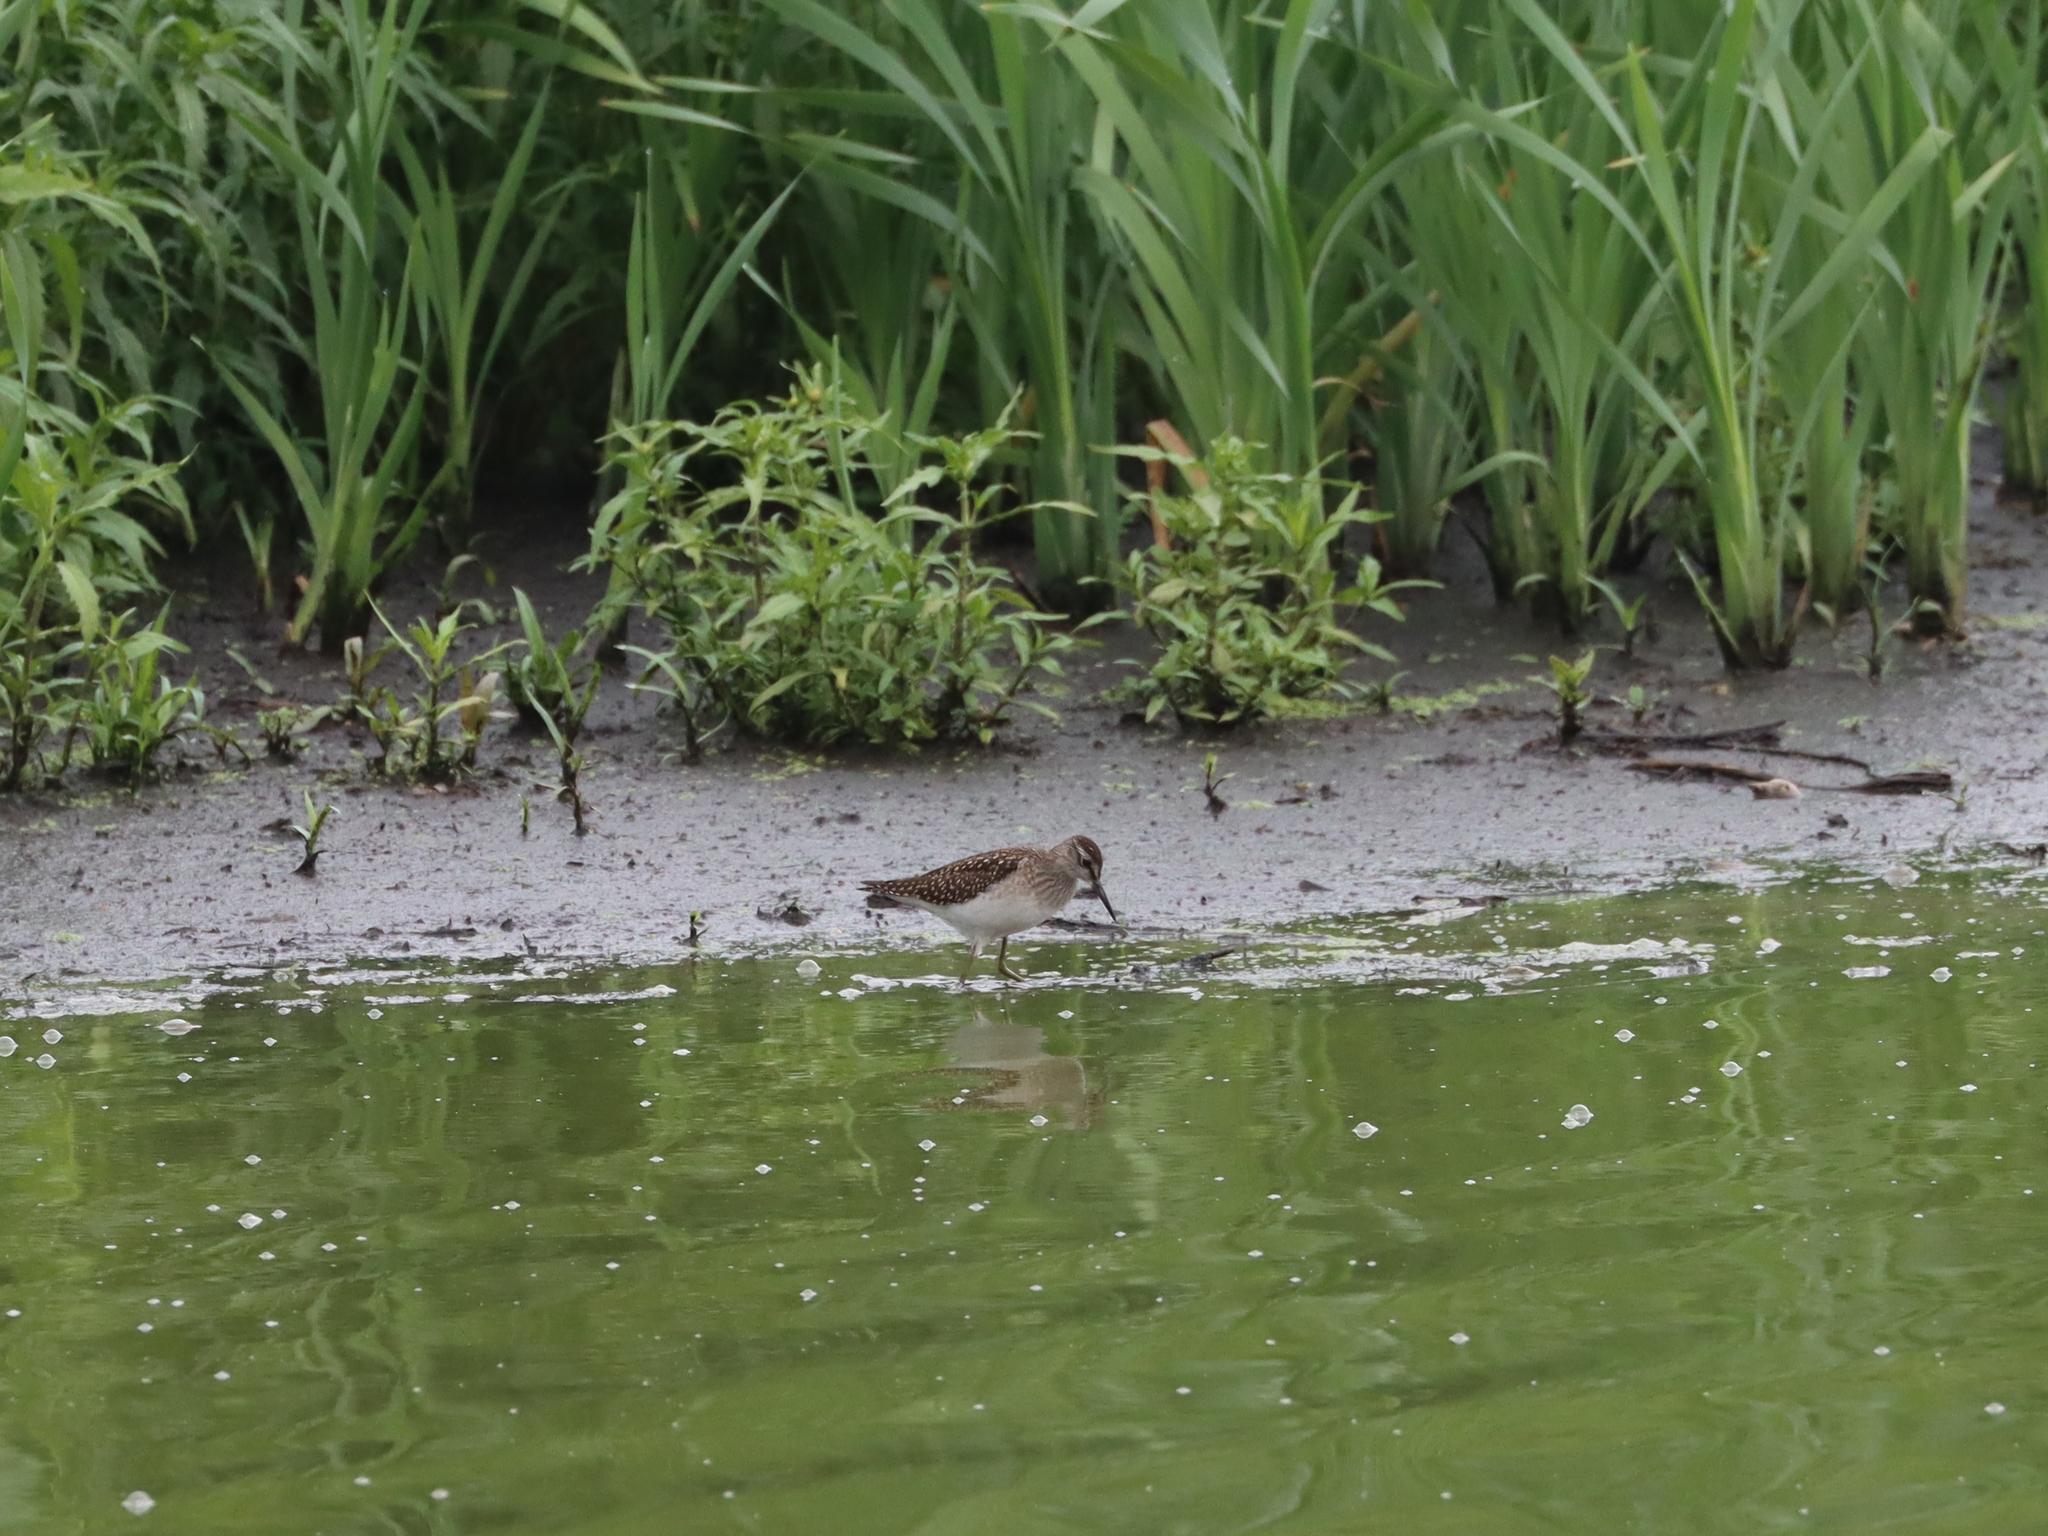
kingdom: Animalia
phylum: Chordata
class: Aves
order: Charadriiformes
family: Scolopacidae
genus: Tringa
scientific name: Tringa glareola
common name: Wood sandpiper
